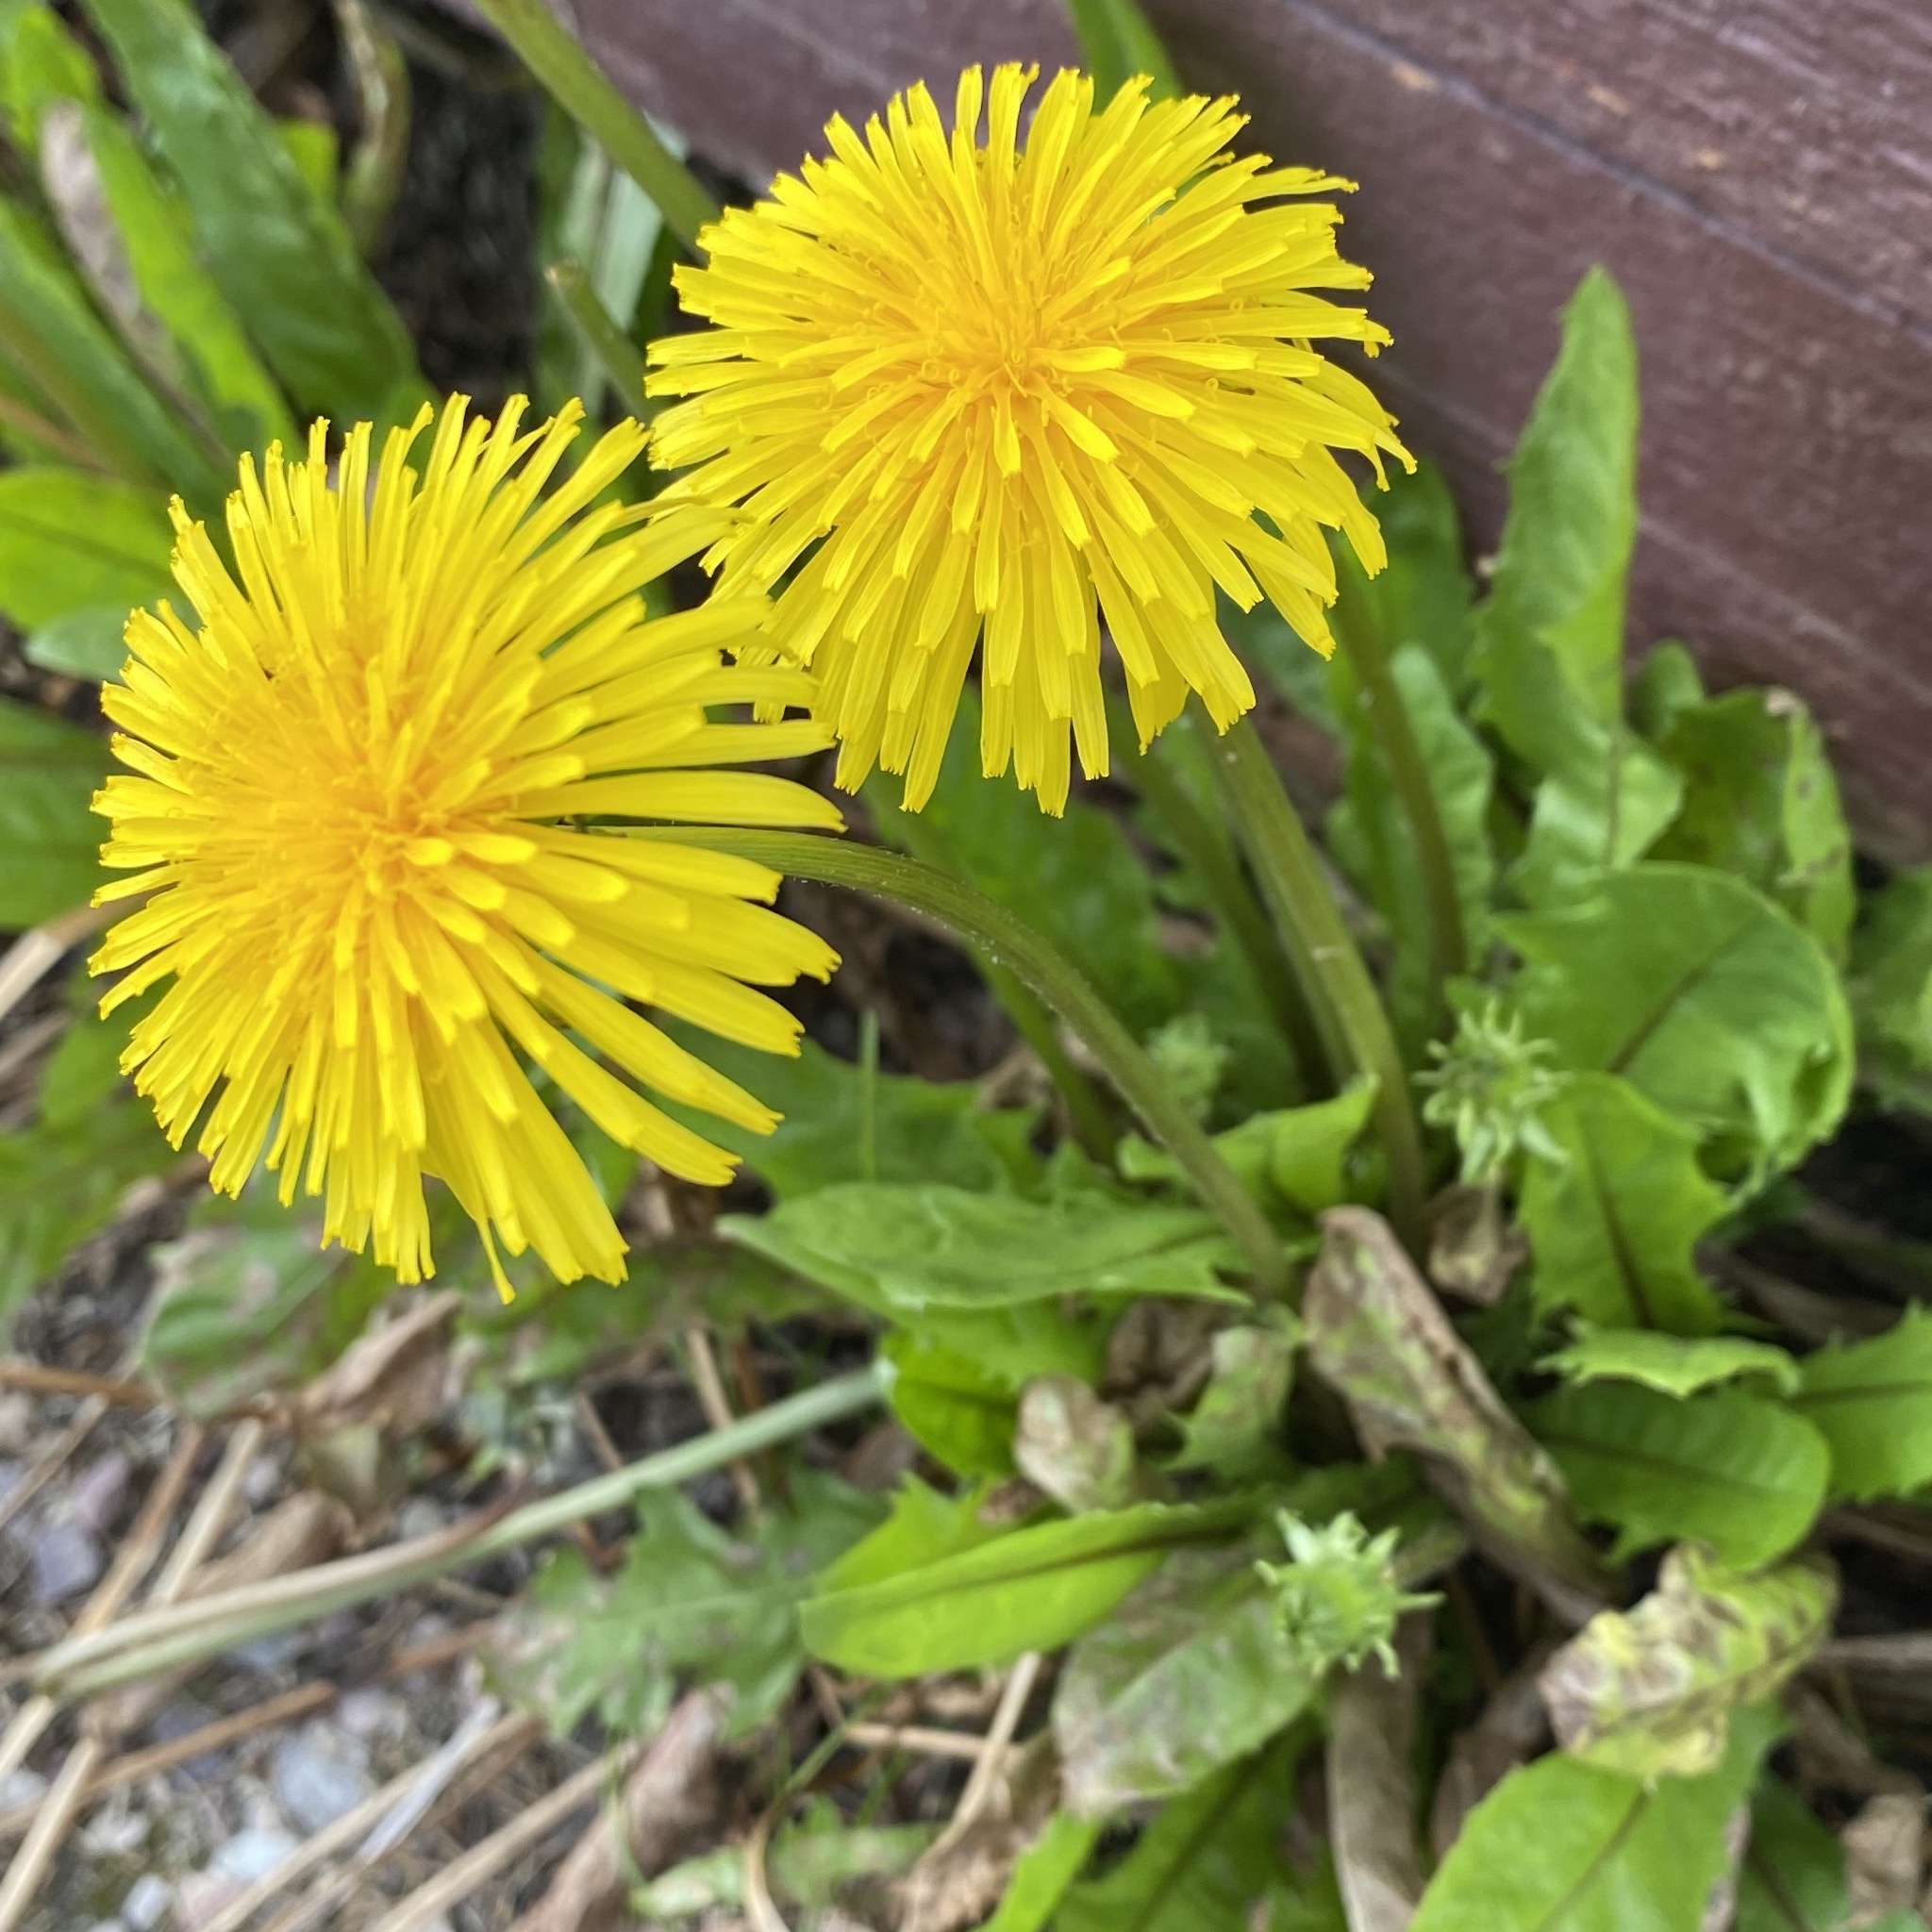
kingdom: Plantae
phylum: Tracheophyta
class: Magnoliopsida
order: Asterales
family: Asteraceae
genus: Taraxacum
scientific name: Taraxacum officinale
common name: Common dandelion
